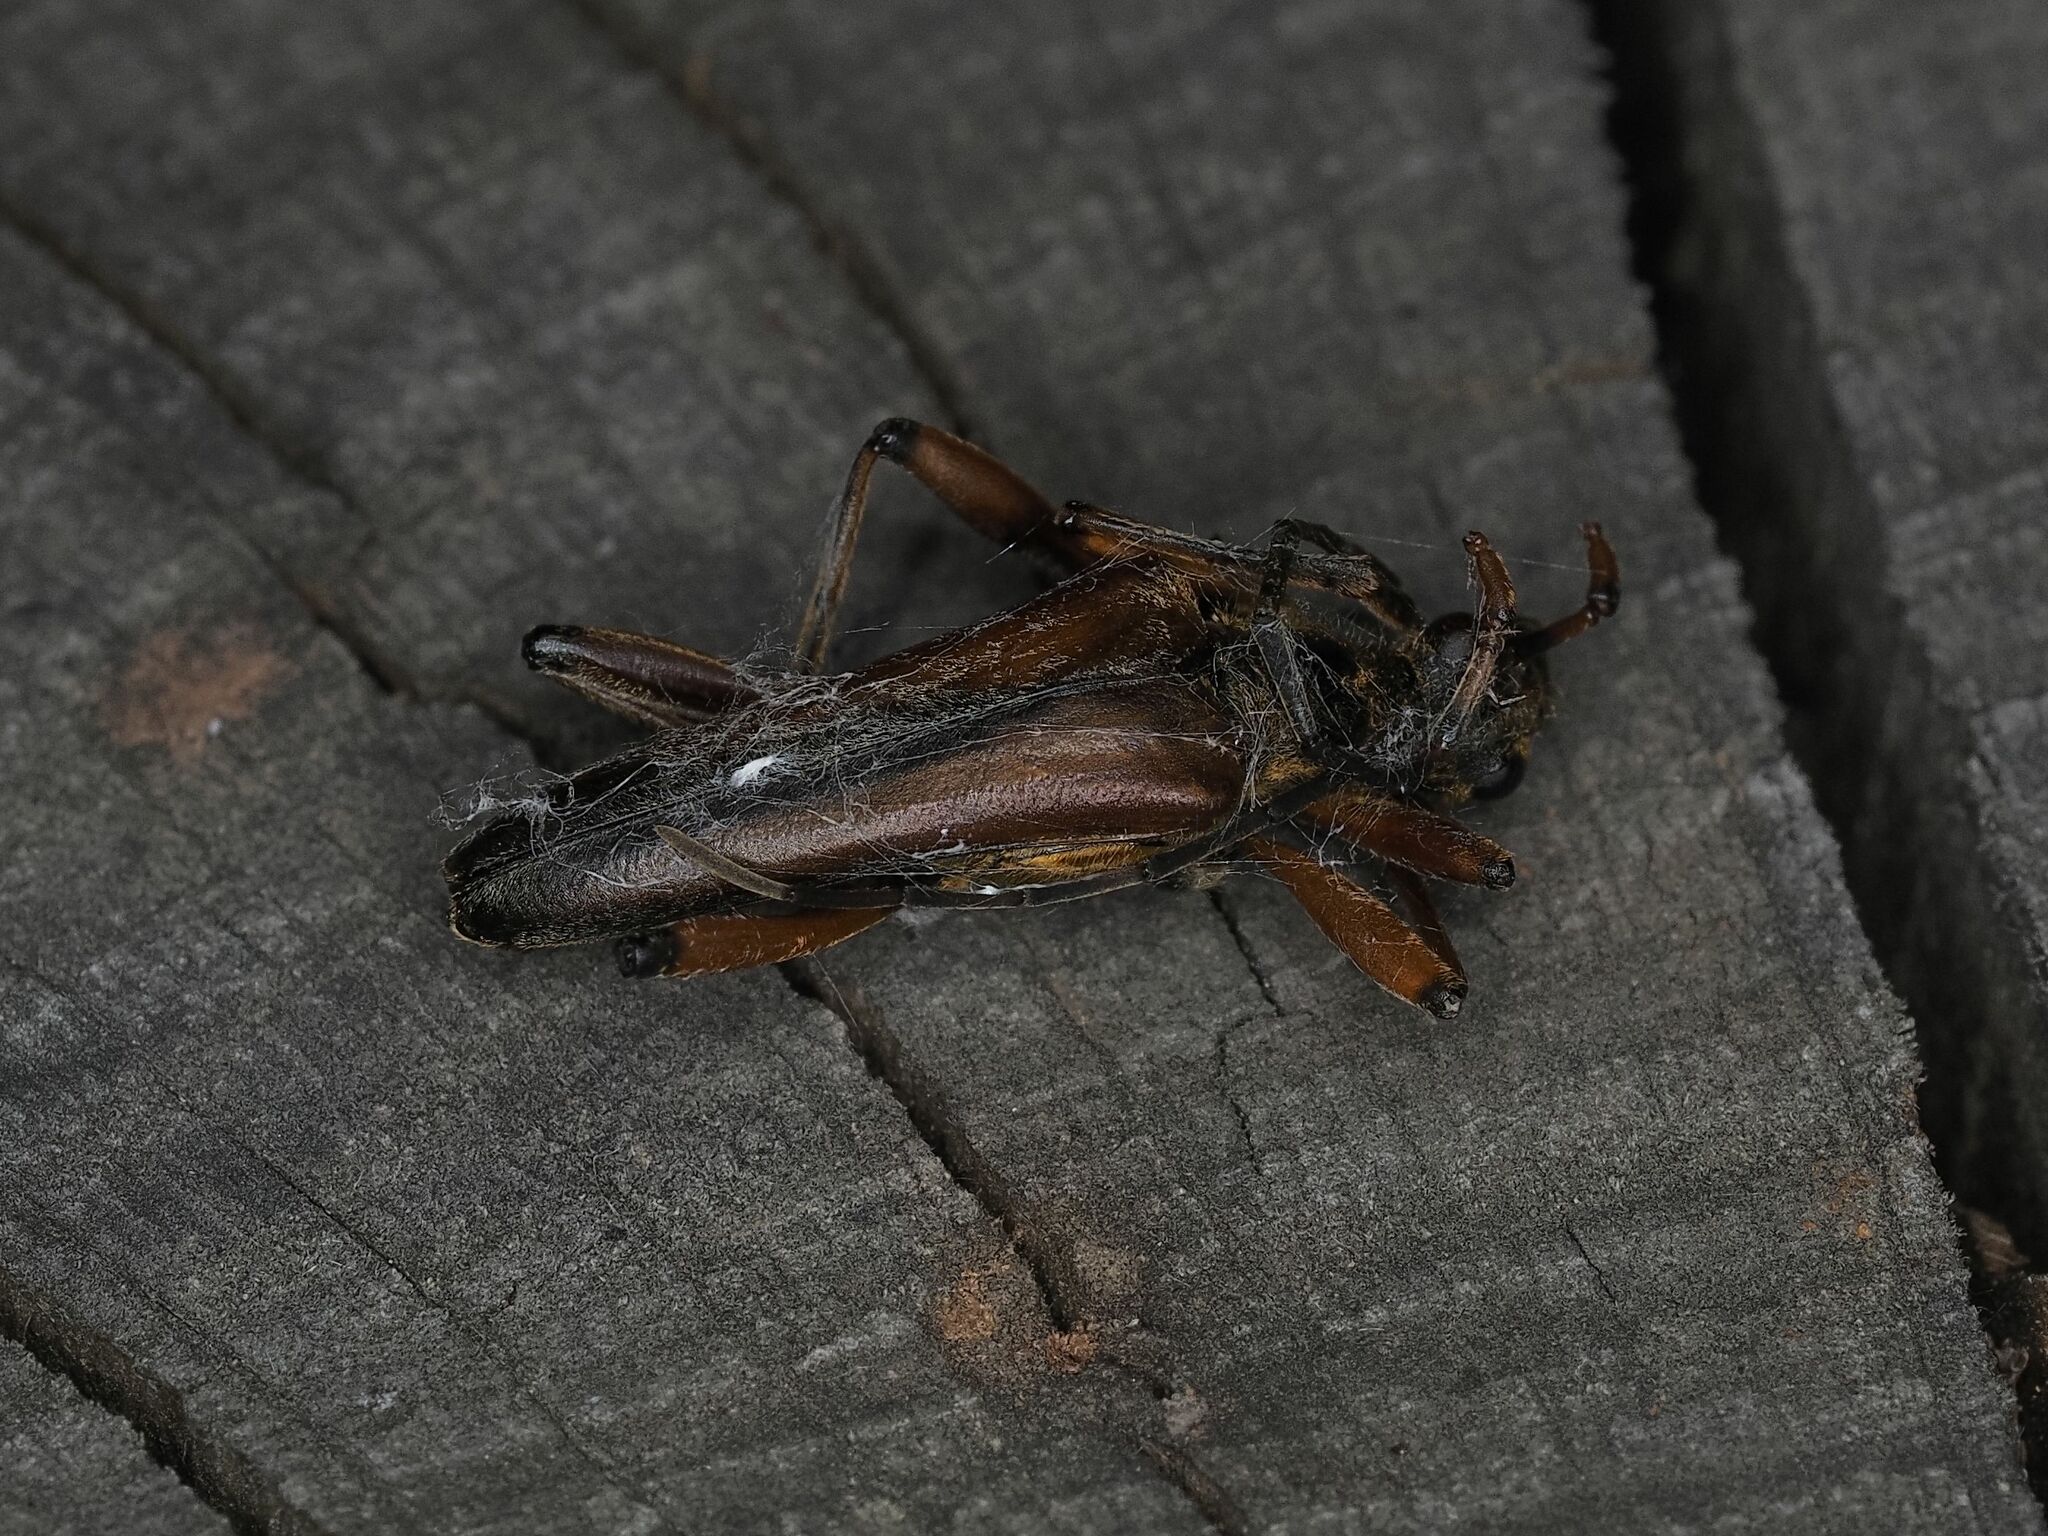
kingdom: Animalia
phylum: Arthropoda
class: Insecta
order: Coleoptera
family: Cerambycidae
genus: Stenocorus
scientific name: Stenocorus meridianus
